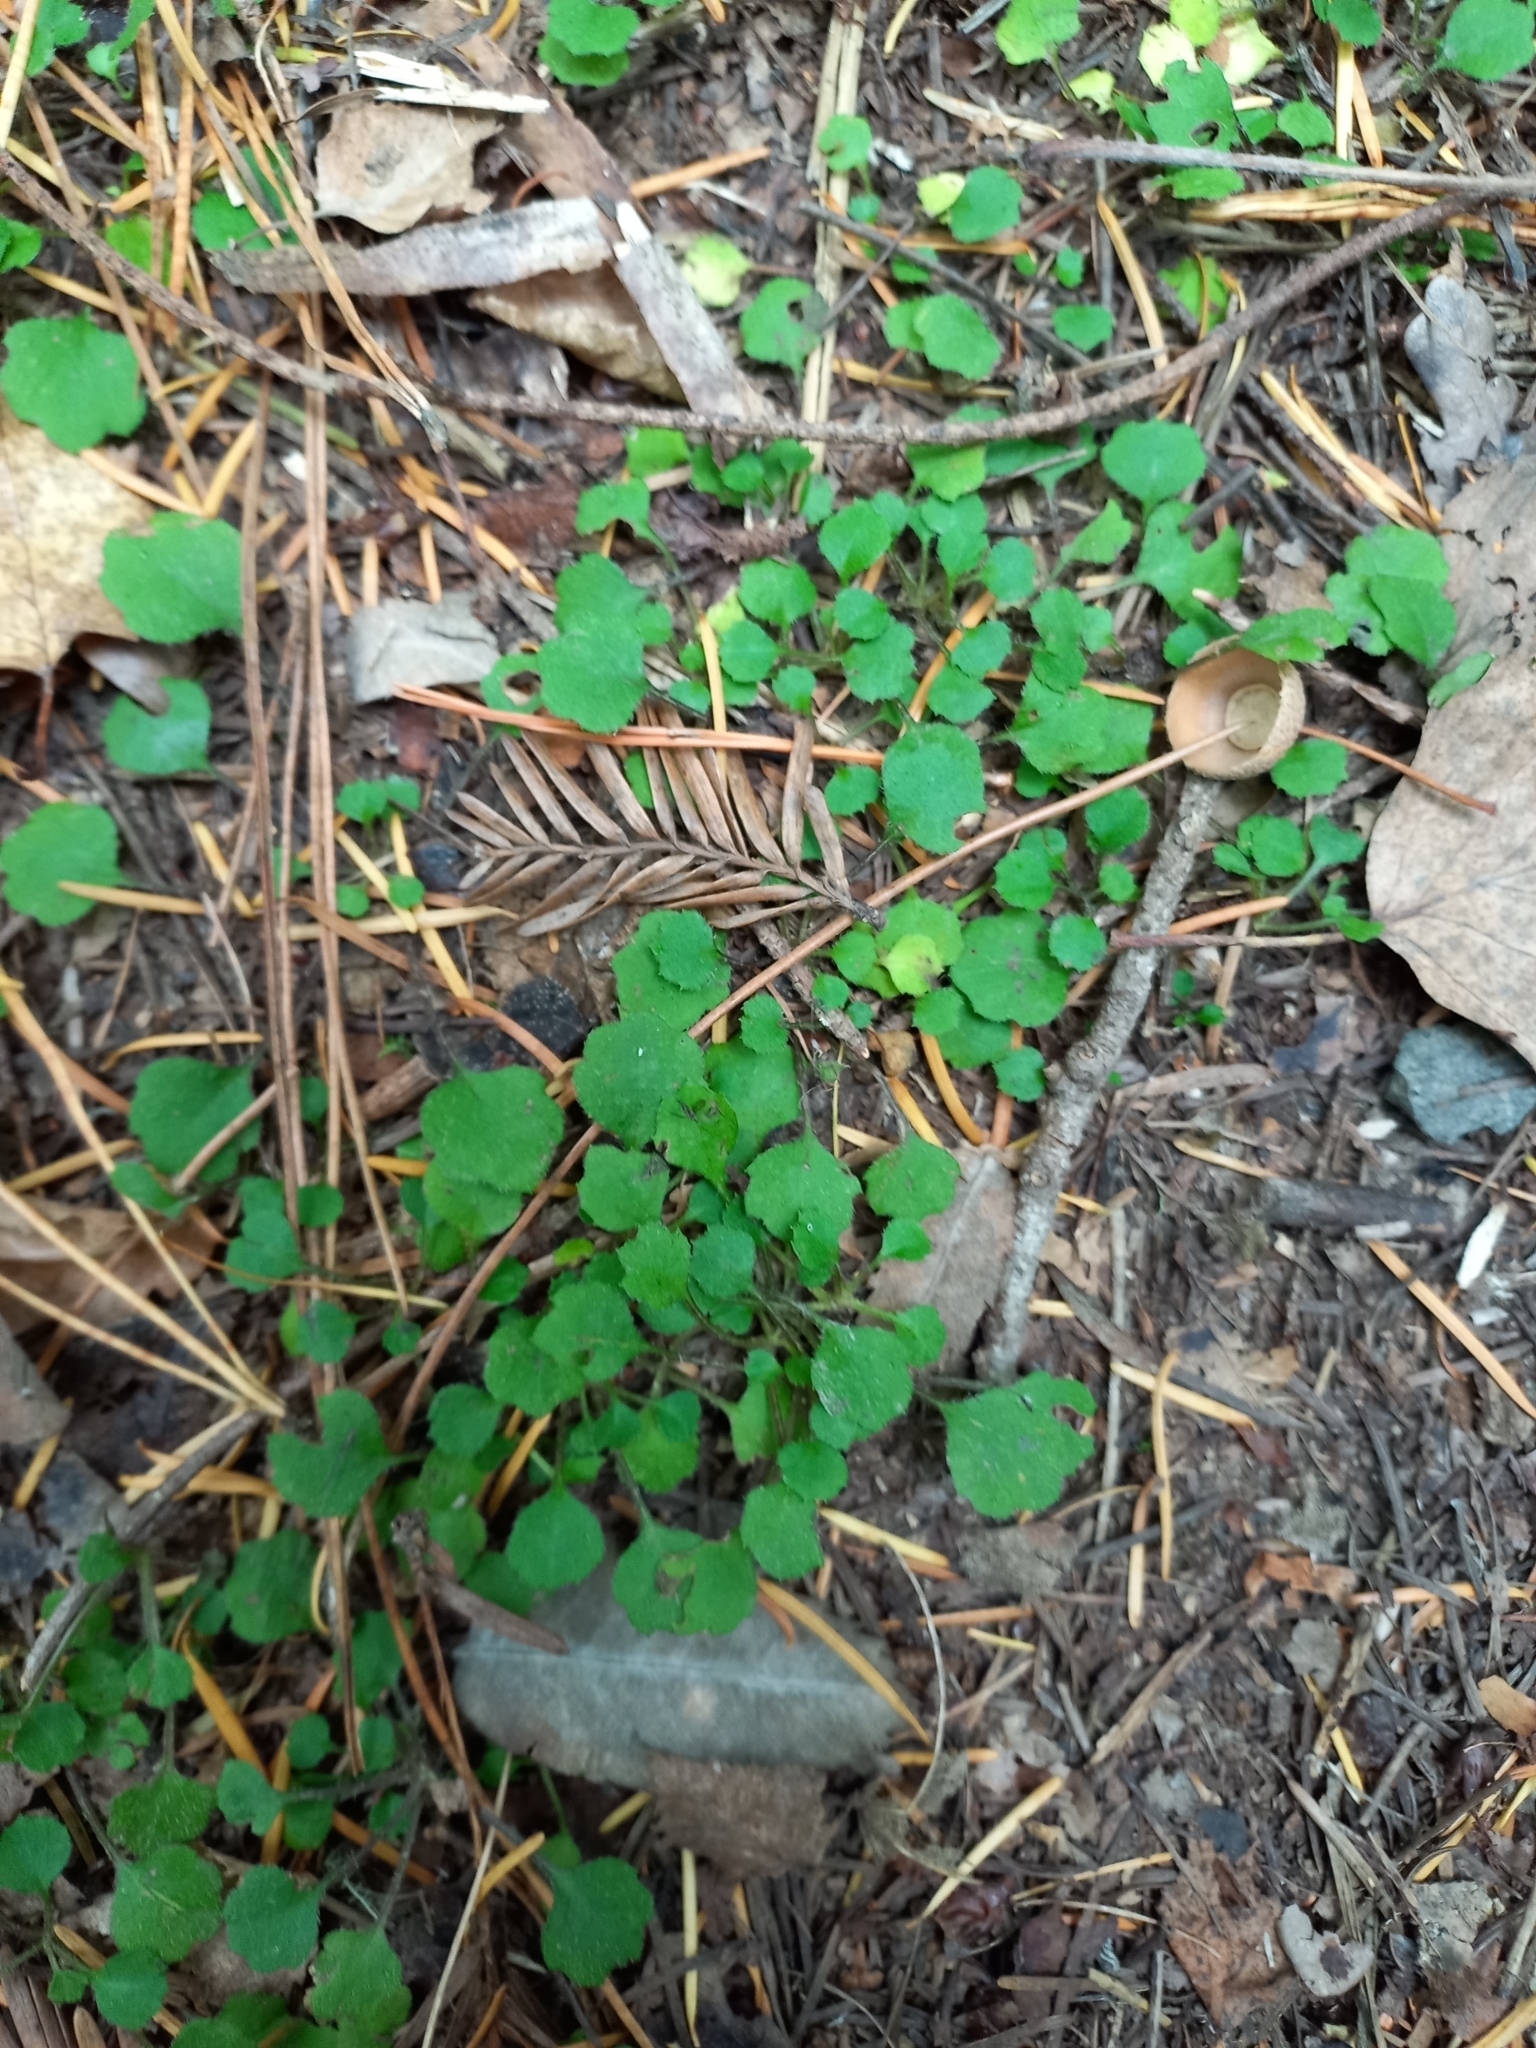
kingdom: Plantae
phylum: Tracheophyta
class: Magnoliopsida
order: Asterales
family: Asteraceae
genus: Lagenophora
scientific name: Lagenophora strangulata
